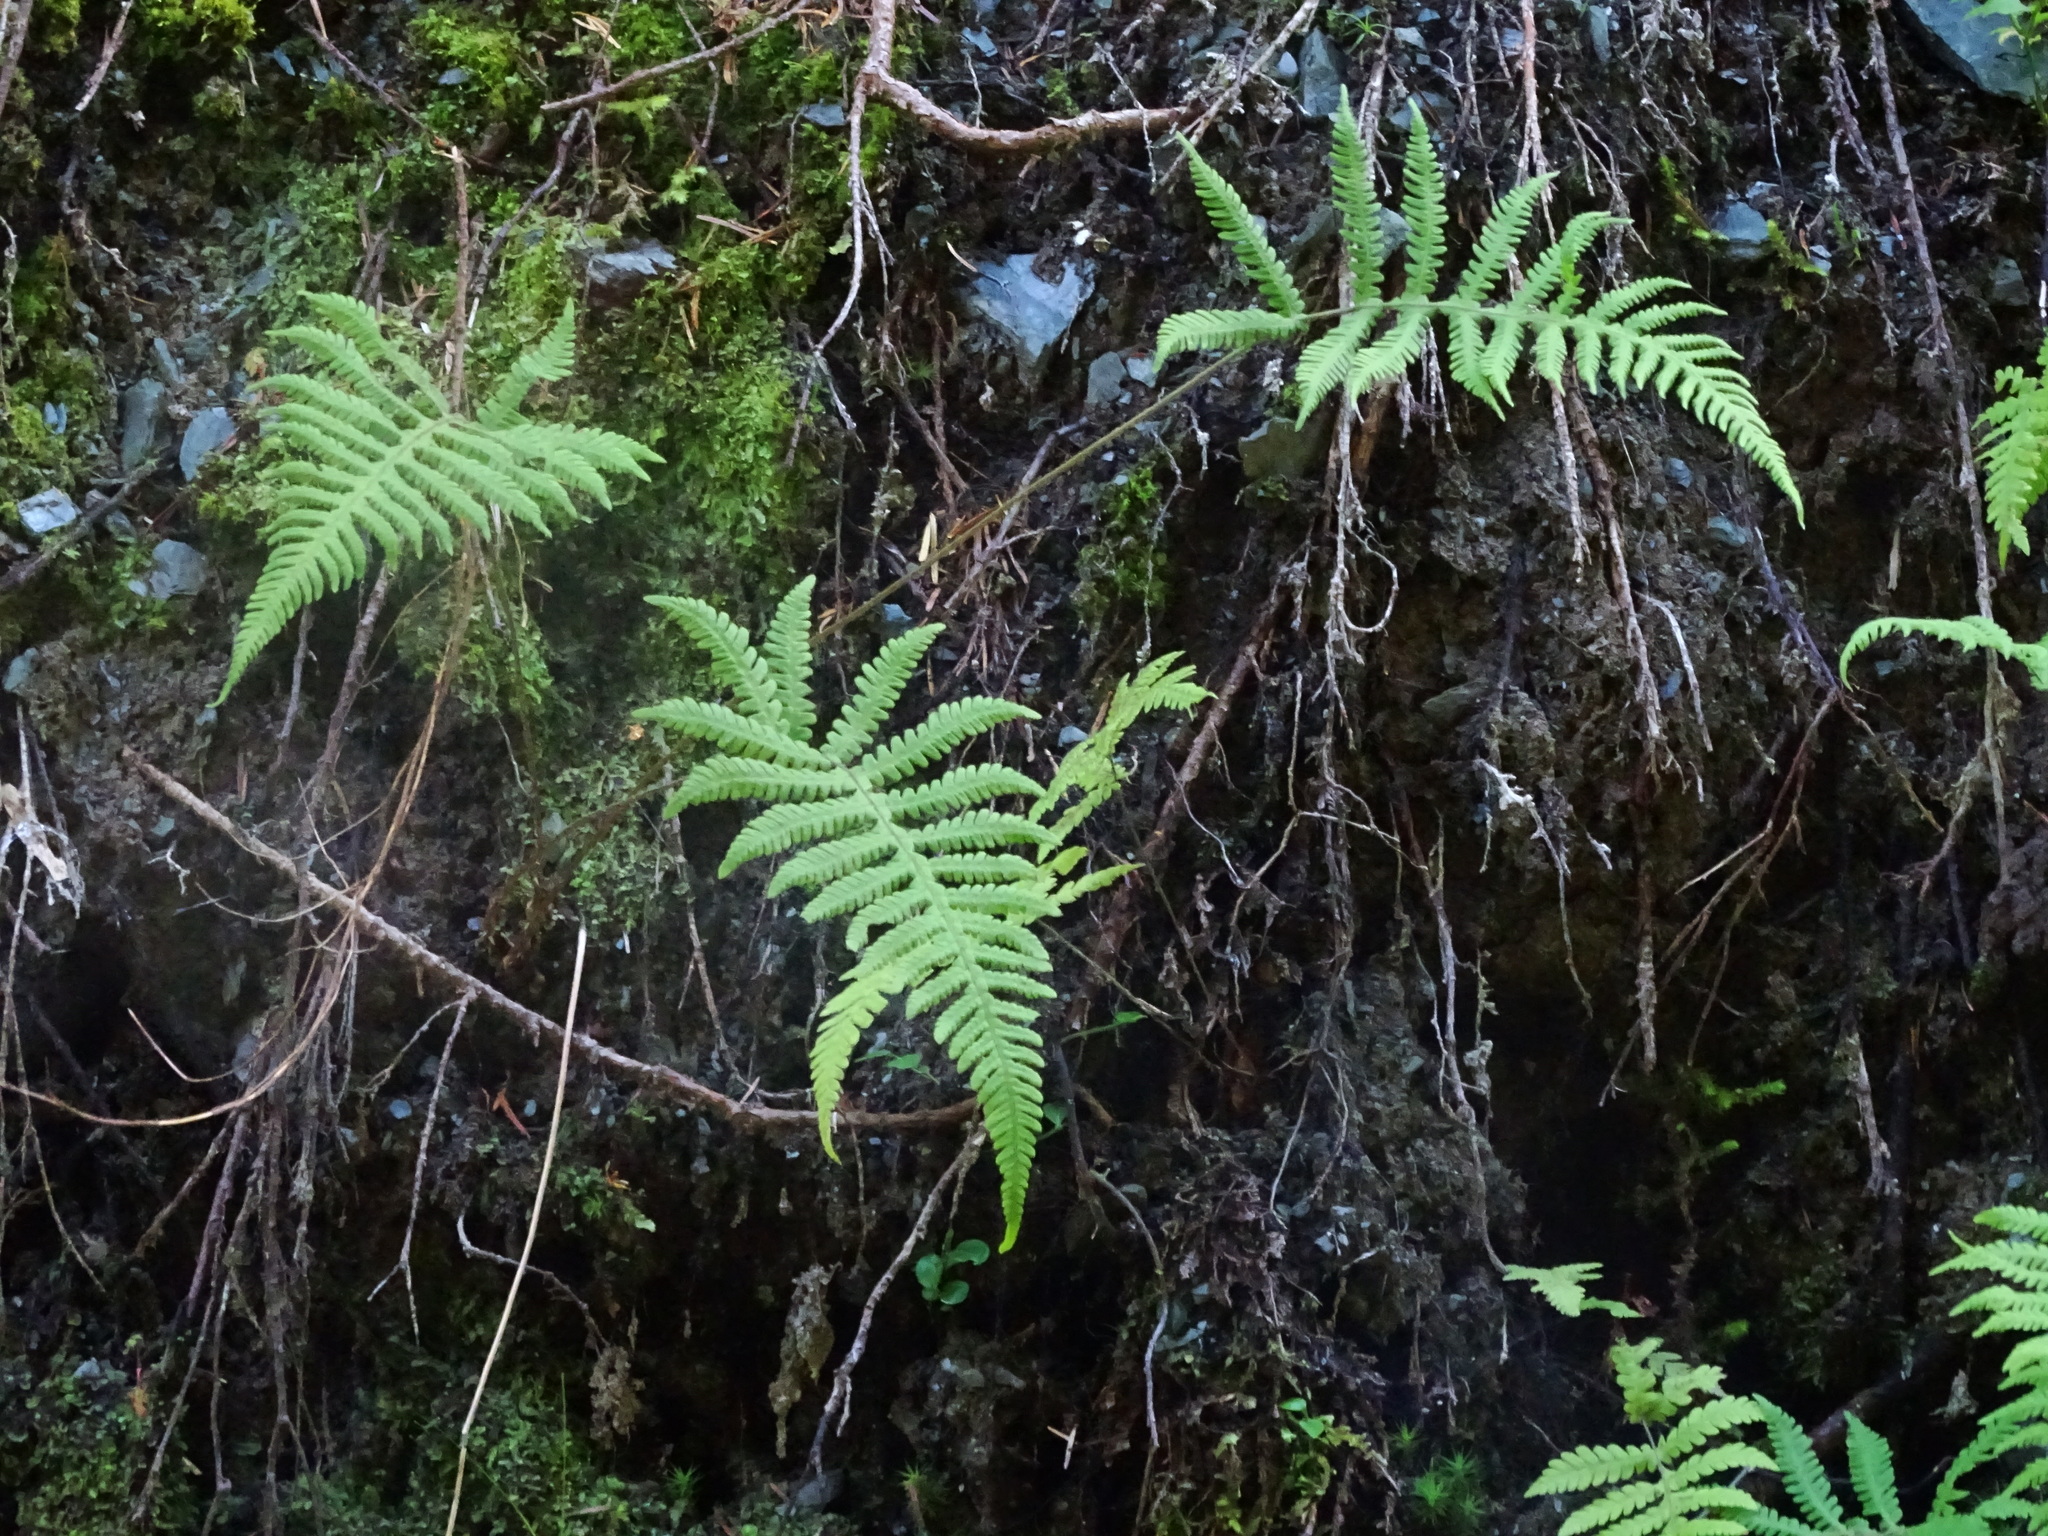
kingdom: Plantae
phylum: Tracheophyta
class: Polypodiopsida
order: Polypodiales
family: Thelypteridaceae
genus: Phegopteris
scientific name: Phegopteris connectilis
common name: Beech fern
